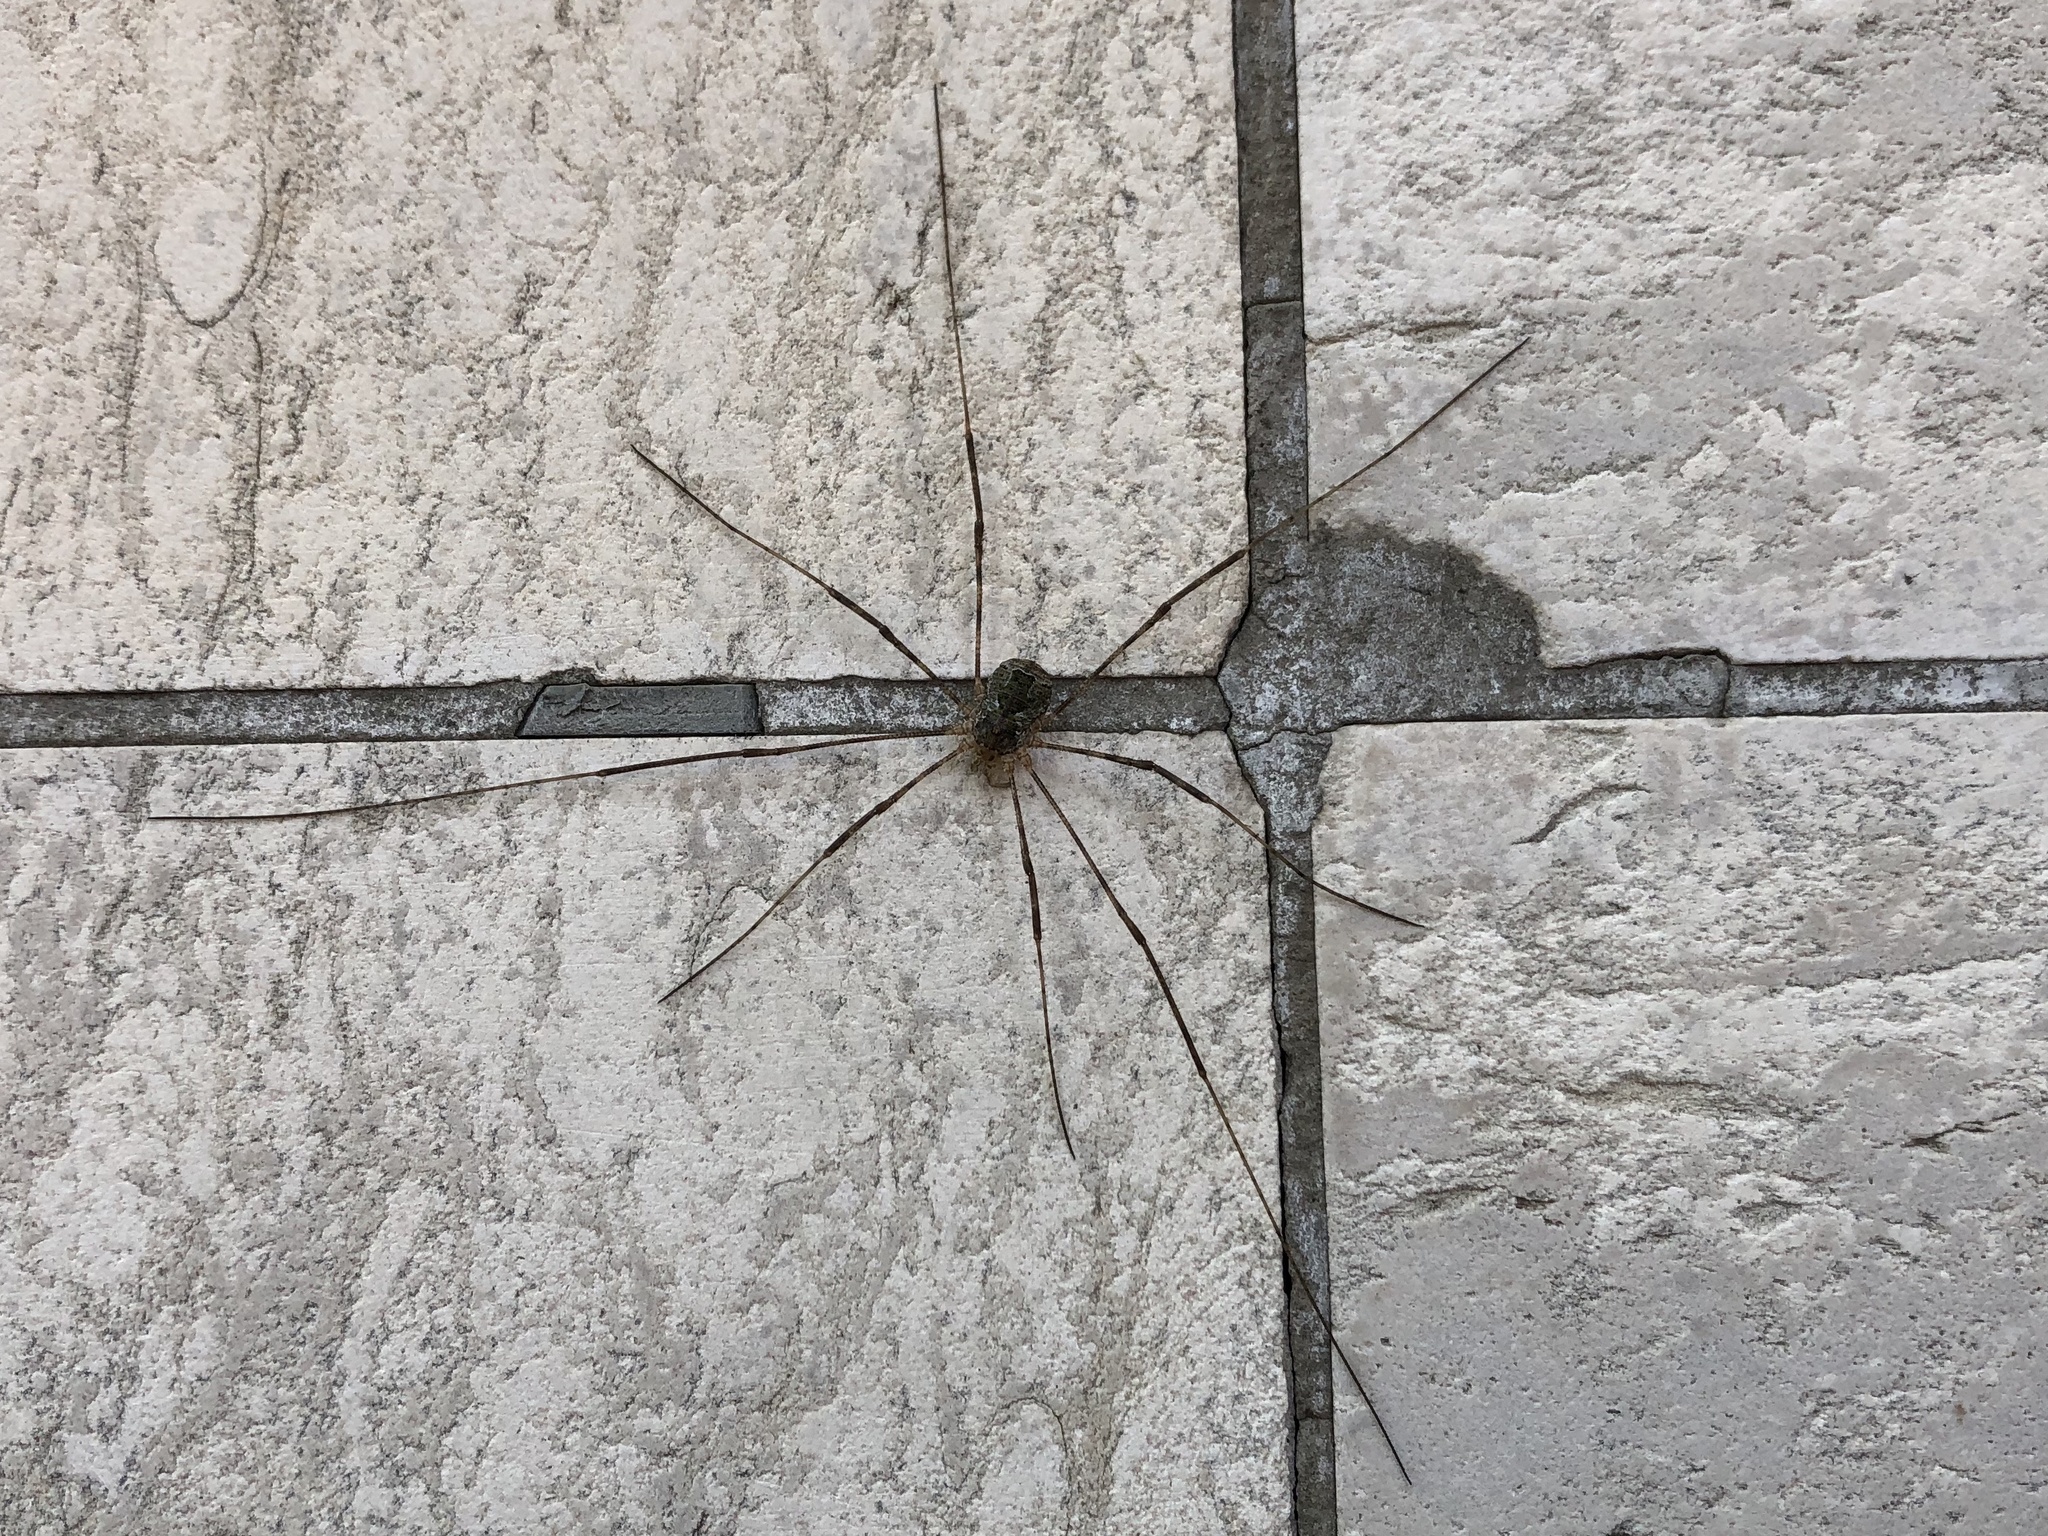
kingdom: Animalia
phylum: Arthropoda
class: Arachnida
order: Opiliones
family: Phalangiidae
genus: Lacinius
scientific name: Lacinius dentiger
